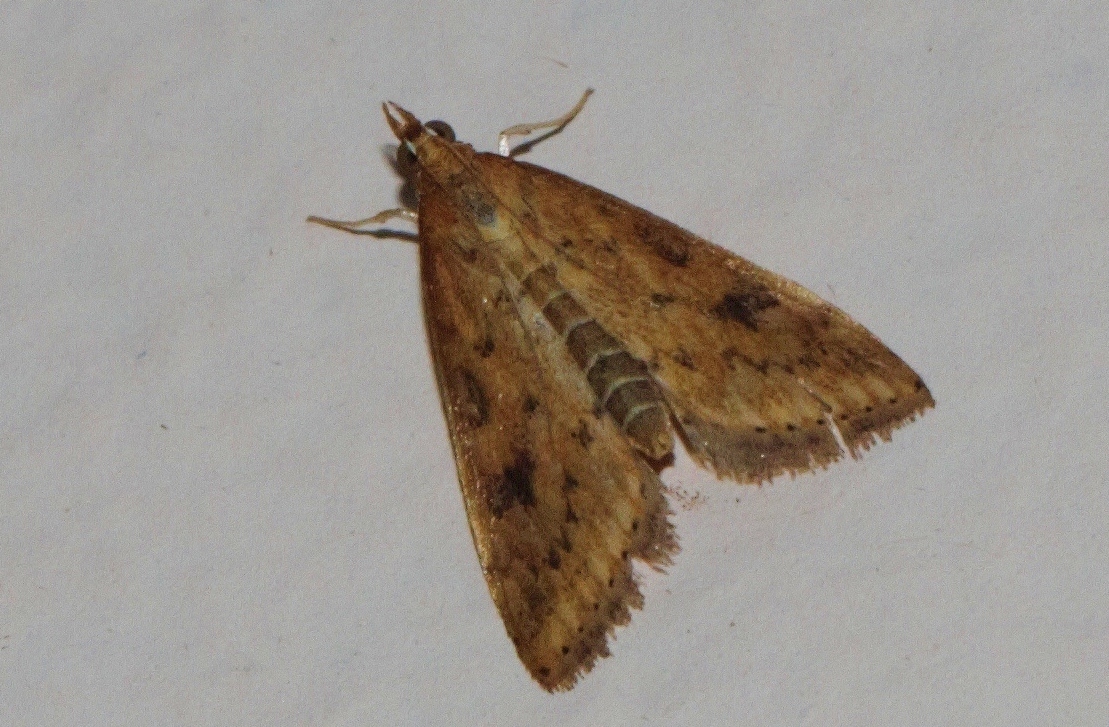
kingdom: Animalia
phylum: Arthropoda
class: Insecta
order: Lepidoptera
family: Crambidae
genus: Udea
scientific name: Udea ferrugalis
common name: Rusty dot
